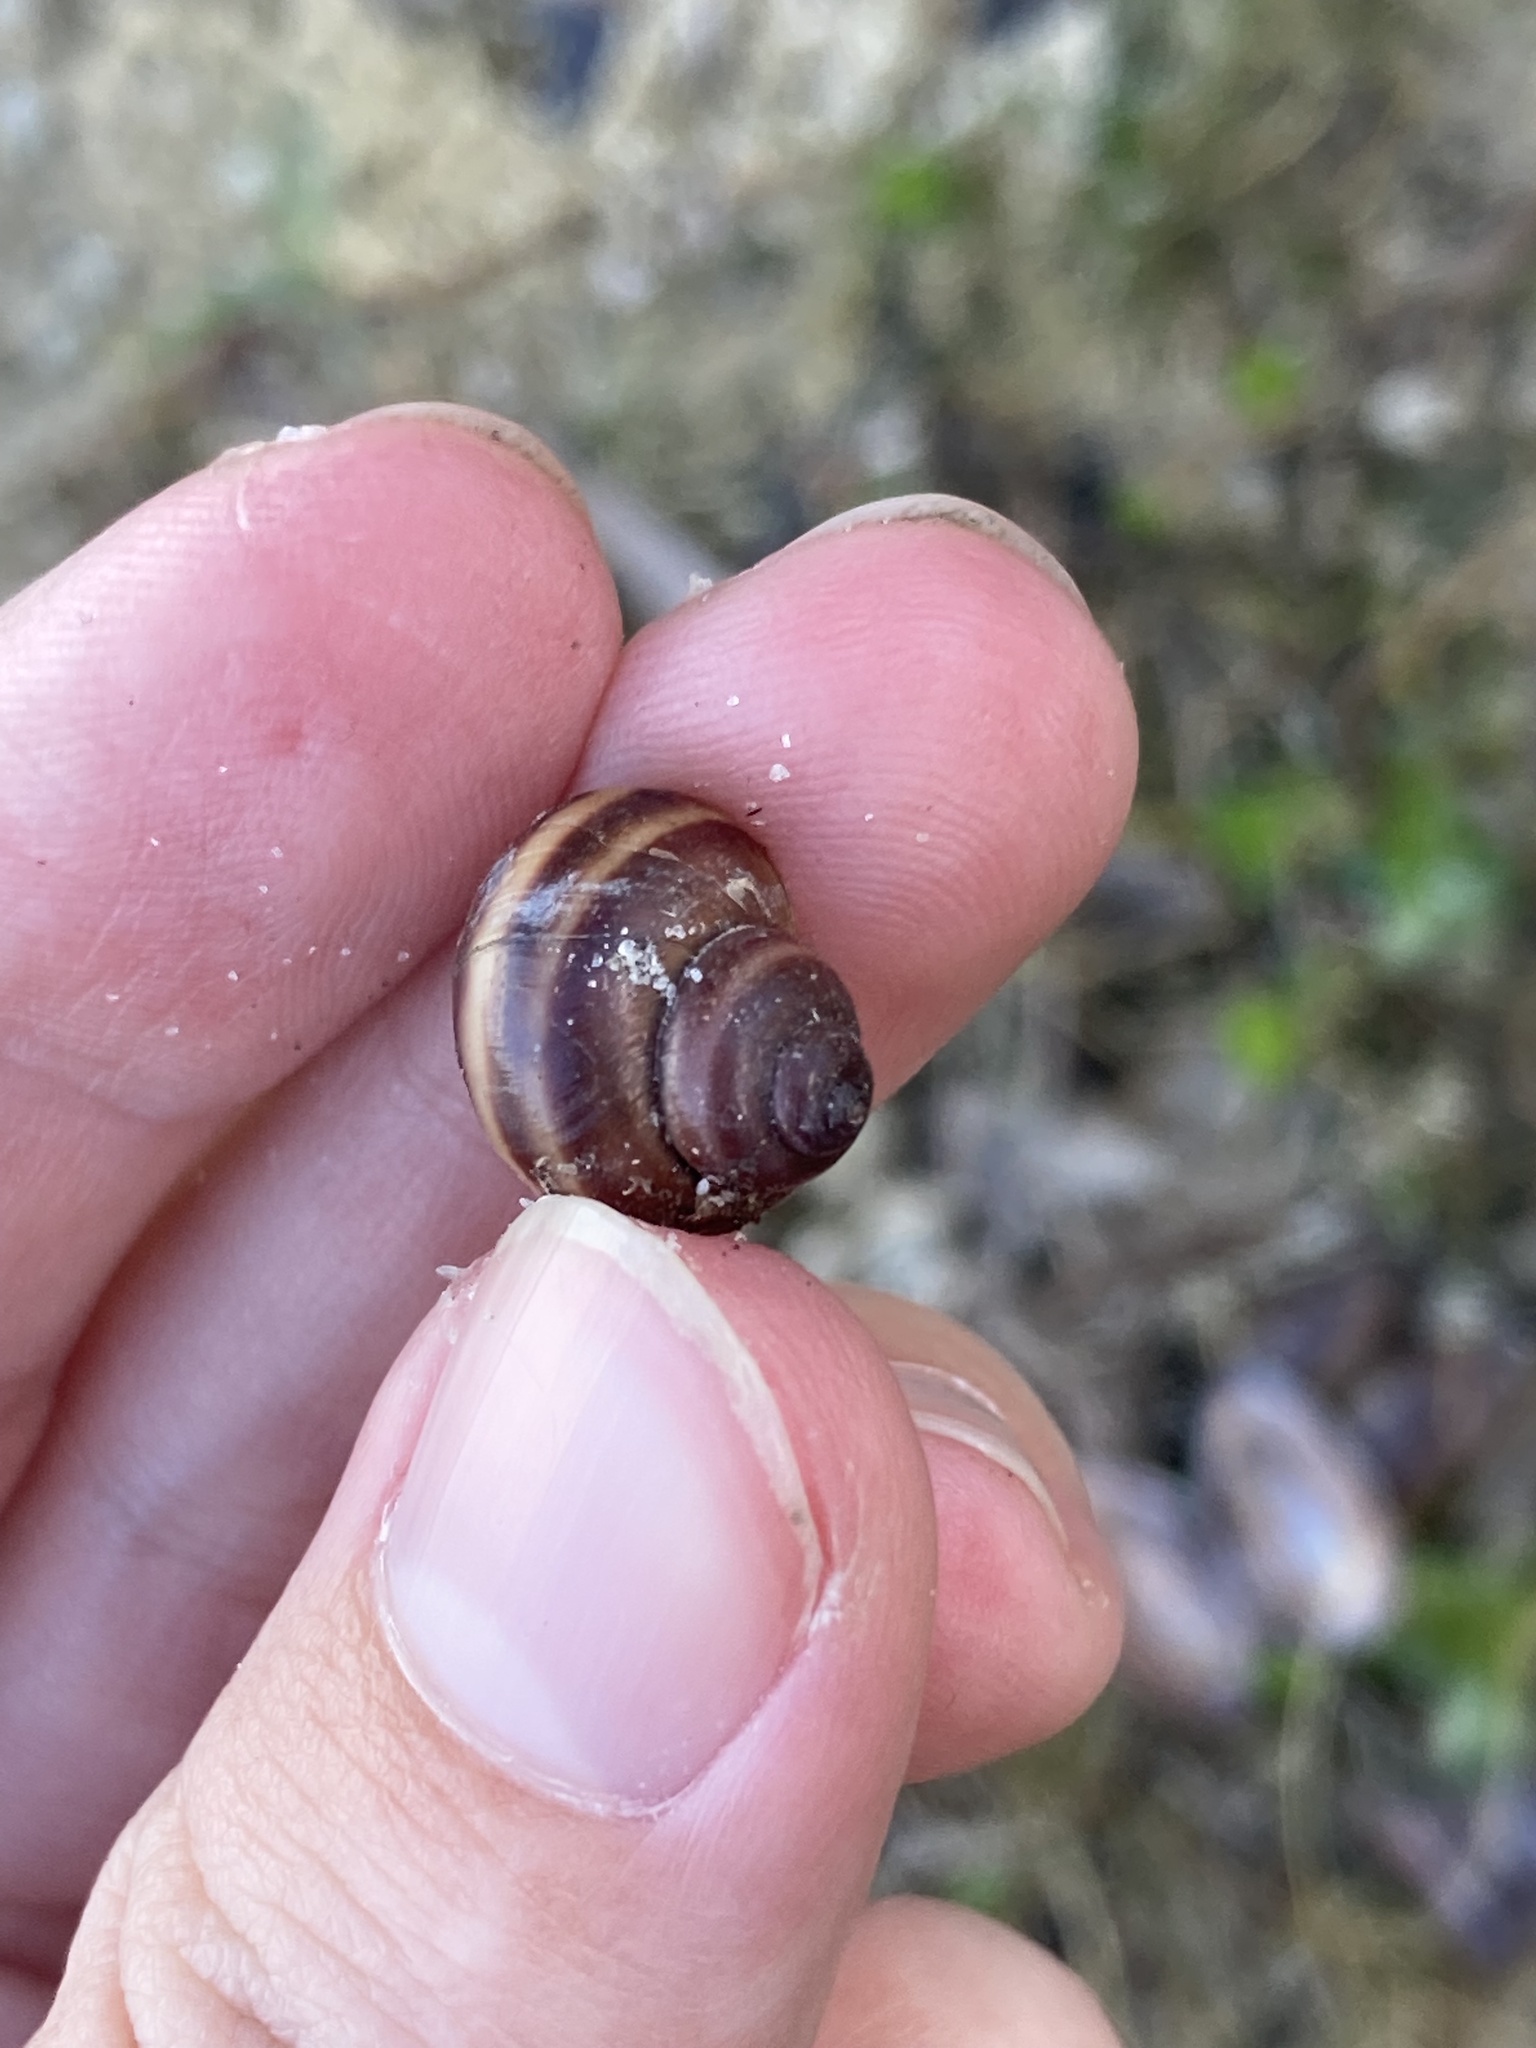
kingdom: Animalia
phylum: Mollusca
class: Gastropoda
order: Architaenioglossa
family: Viviparidae
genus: Callinina
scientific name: Callinina georgiana
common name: Banded mystery snail
